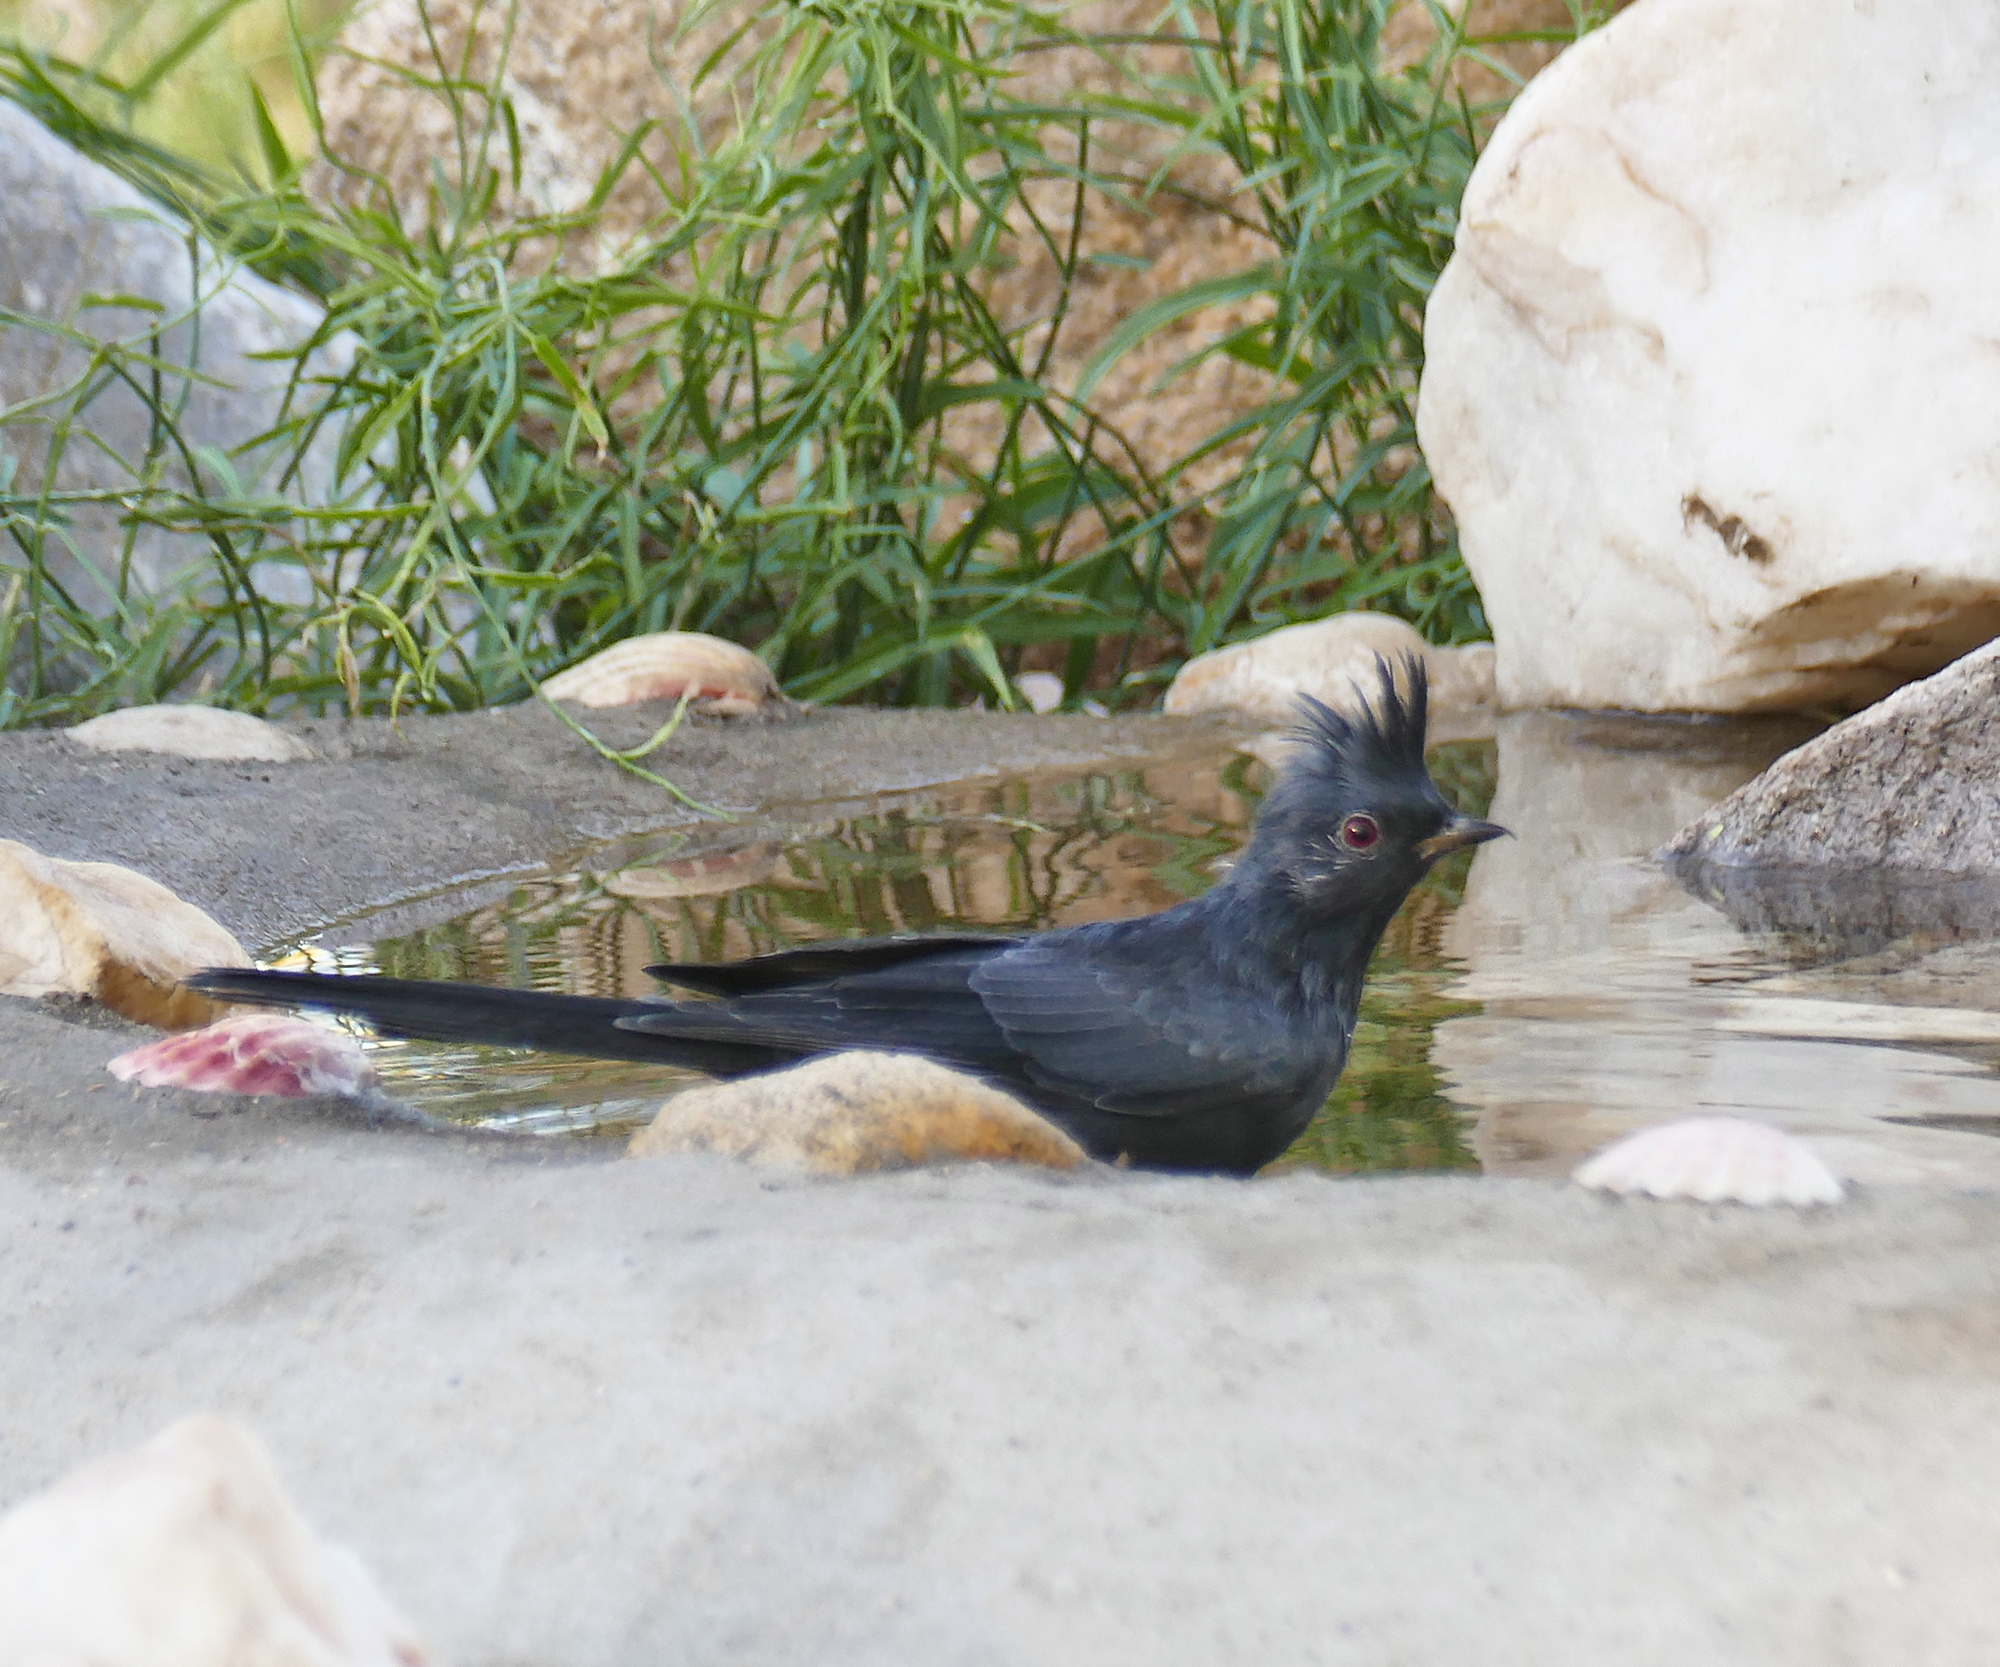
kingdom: Animalia
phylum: Chordata
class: Aves
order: Passeriformes
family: Ptilogonatidae
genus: Phainopepla
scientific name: Phainopepla nitens
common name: Phainopepla
